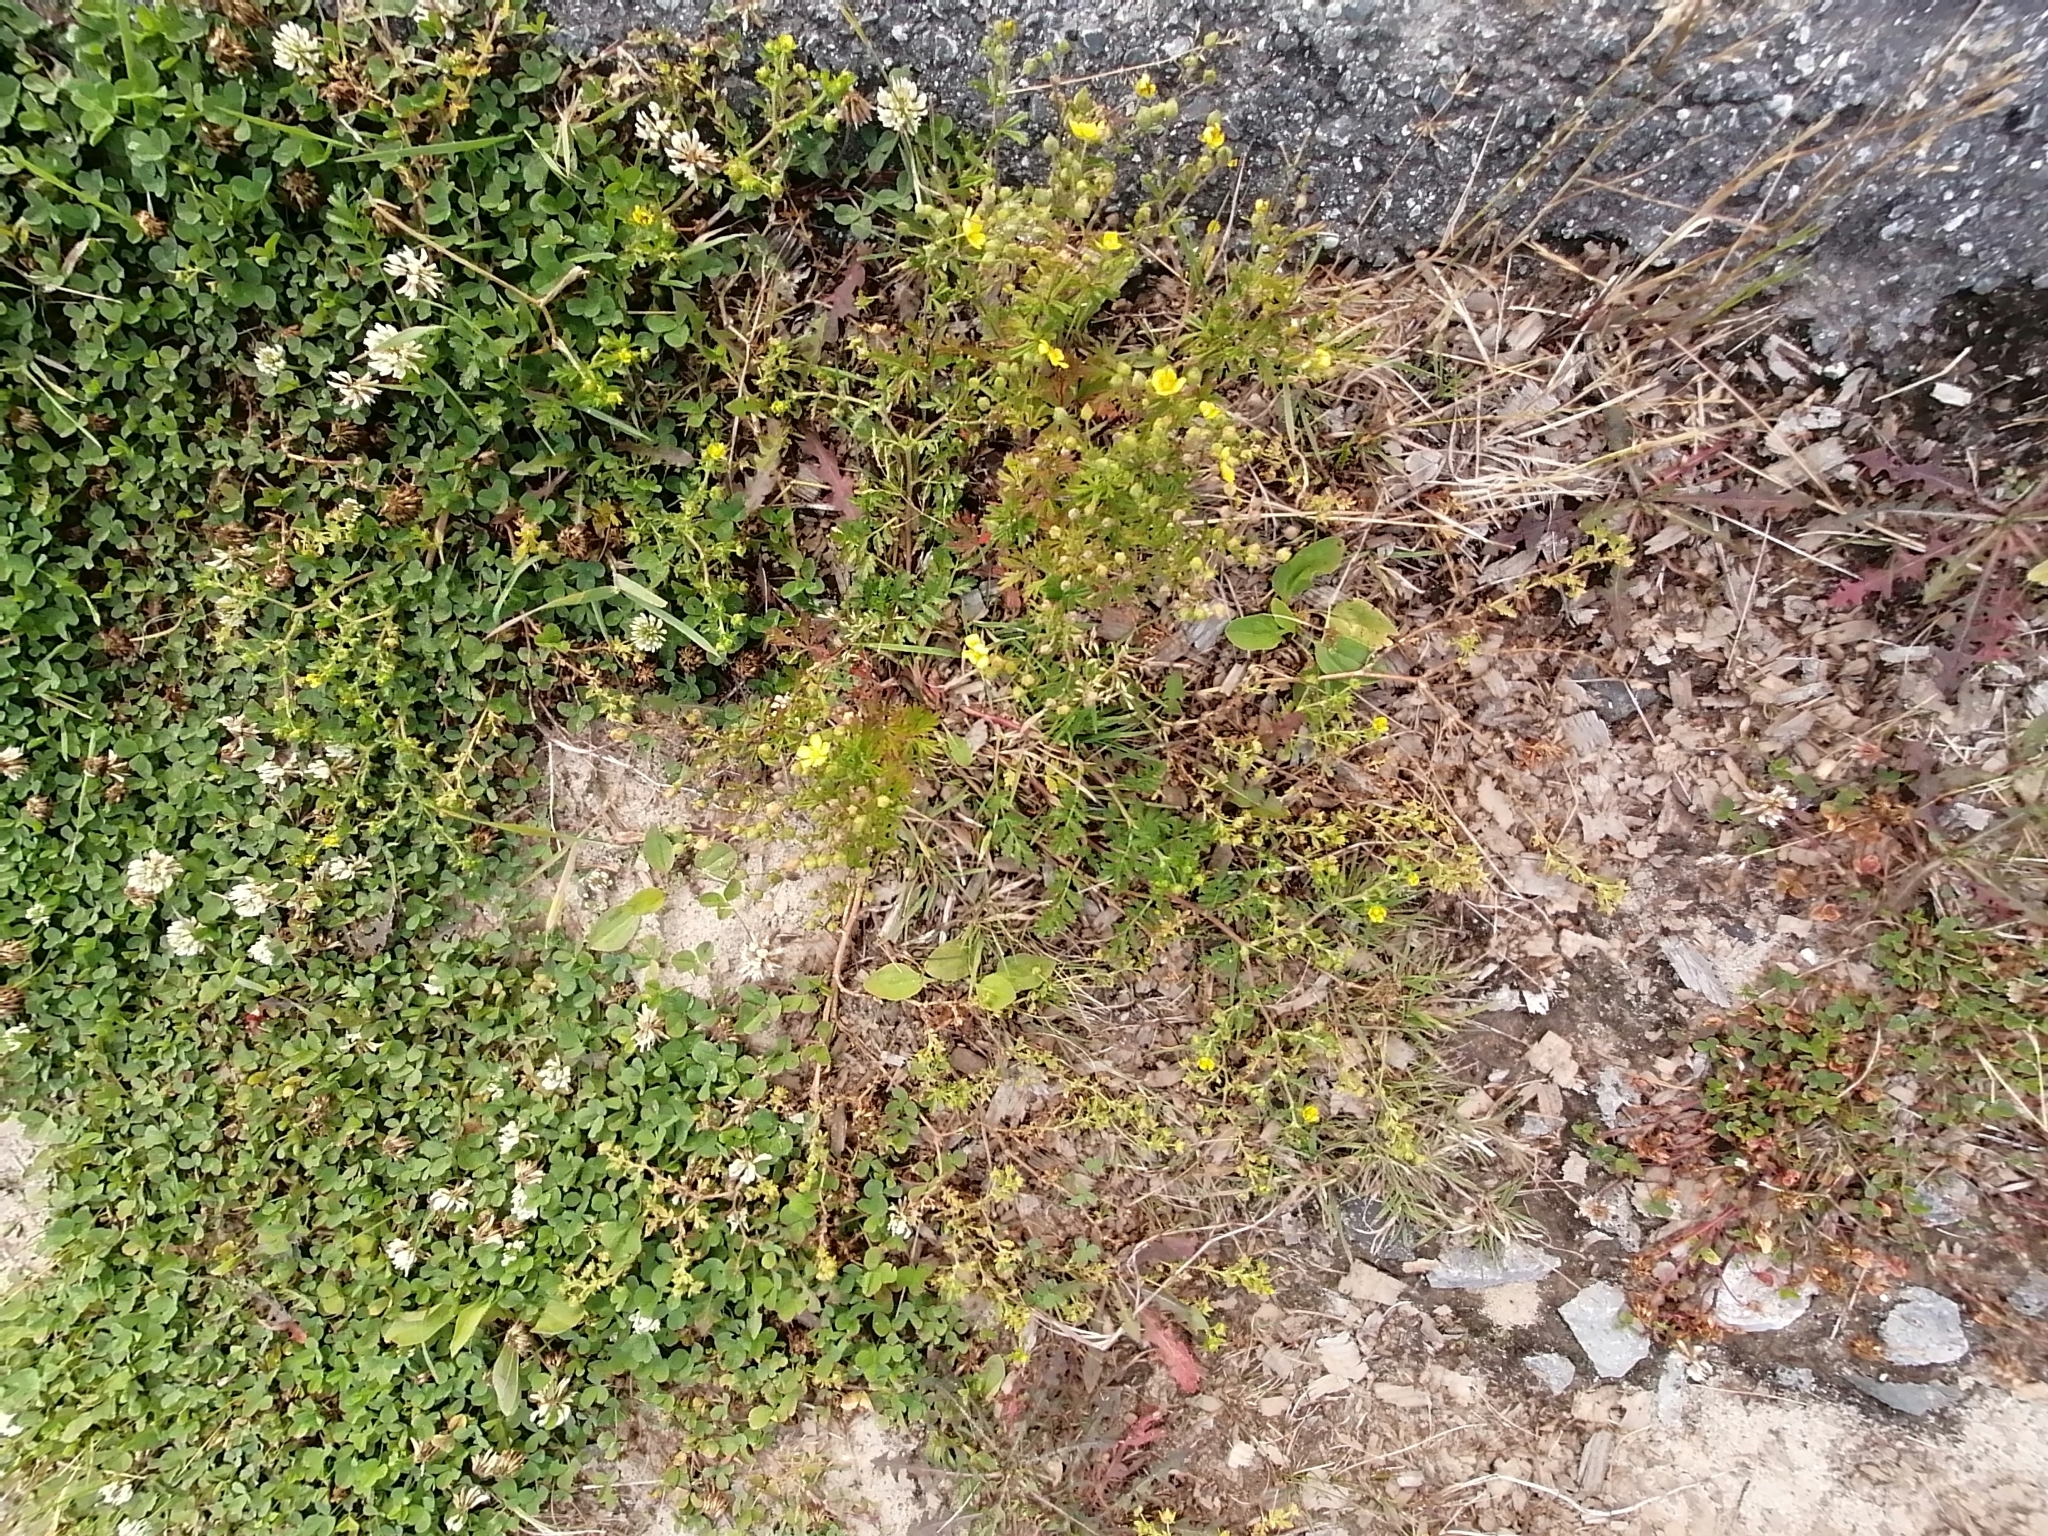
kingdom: Plantae
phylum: Tracheophyta
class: Magnoliopsida
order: Rosales
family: Rosaceae
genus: Potentilla
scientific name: Potentilla supina
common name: Prostrate cinquefoil
